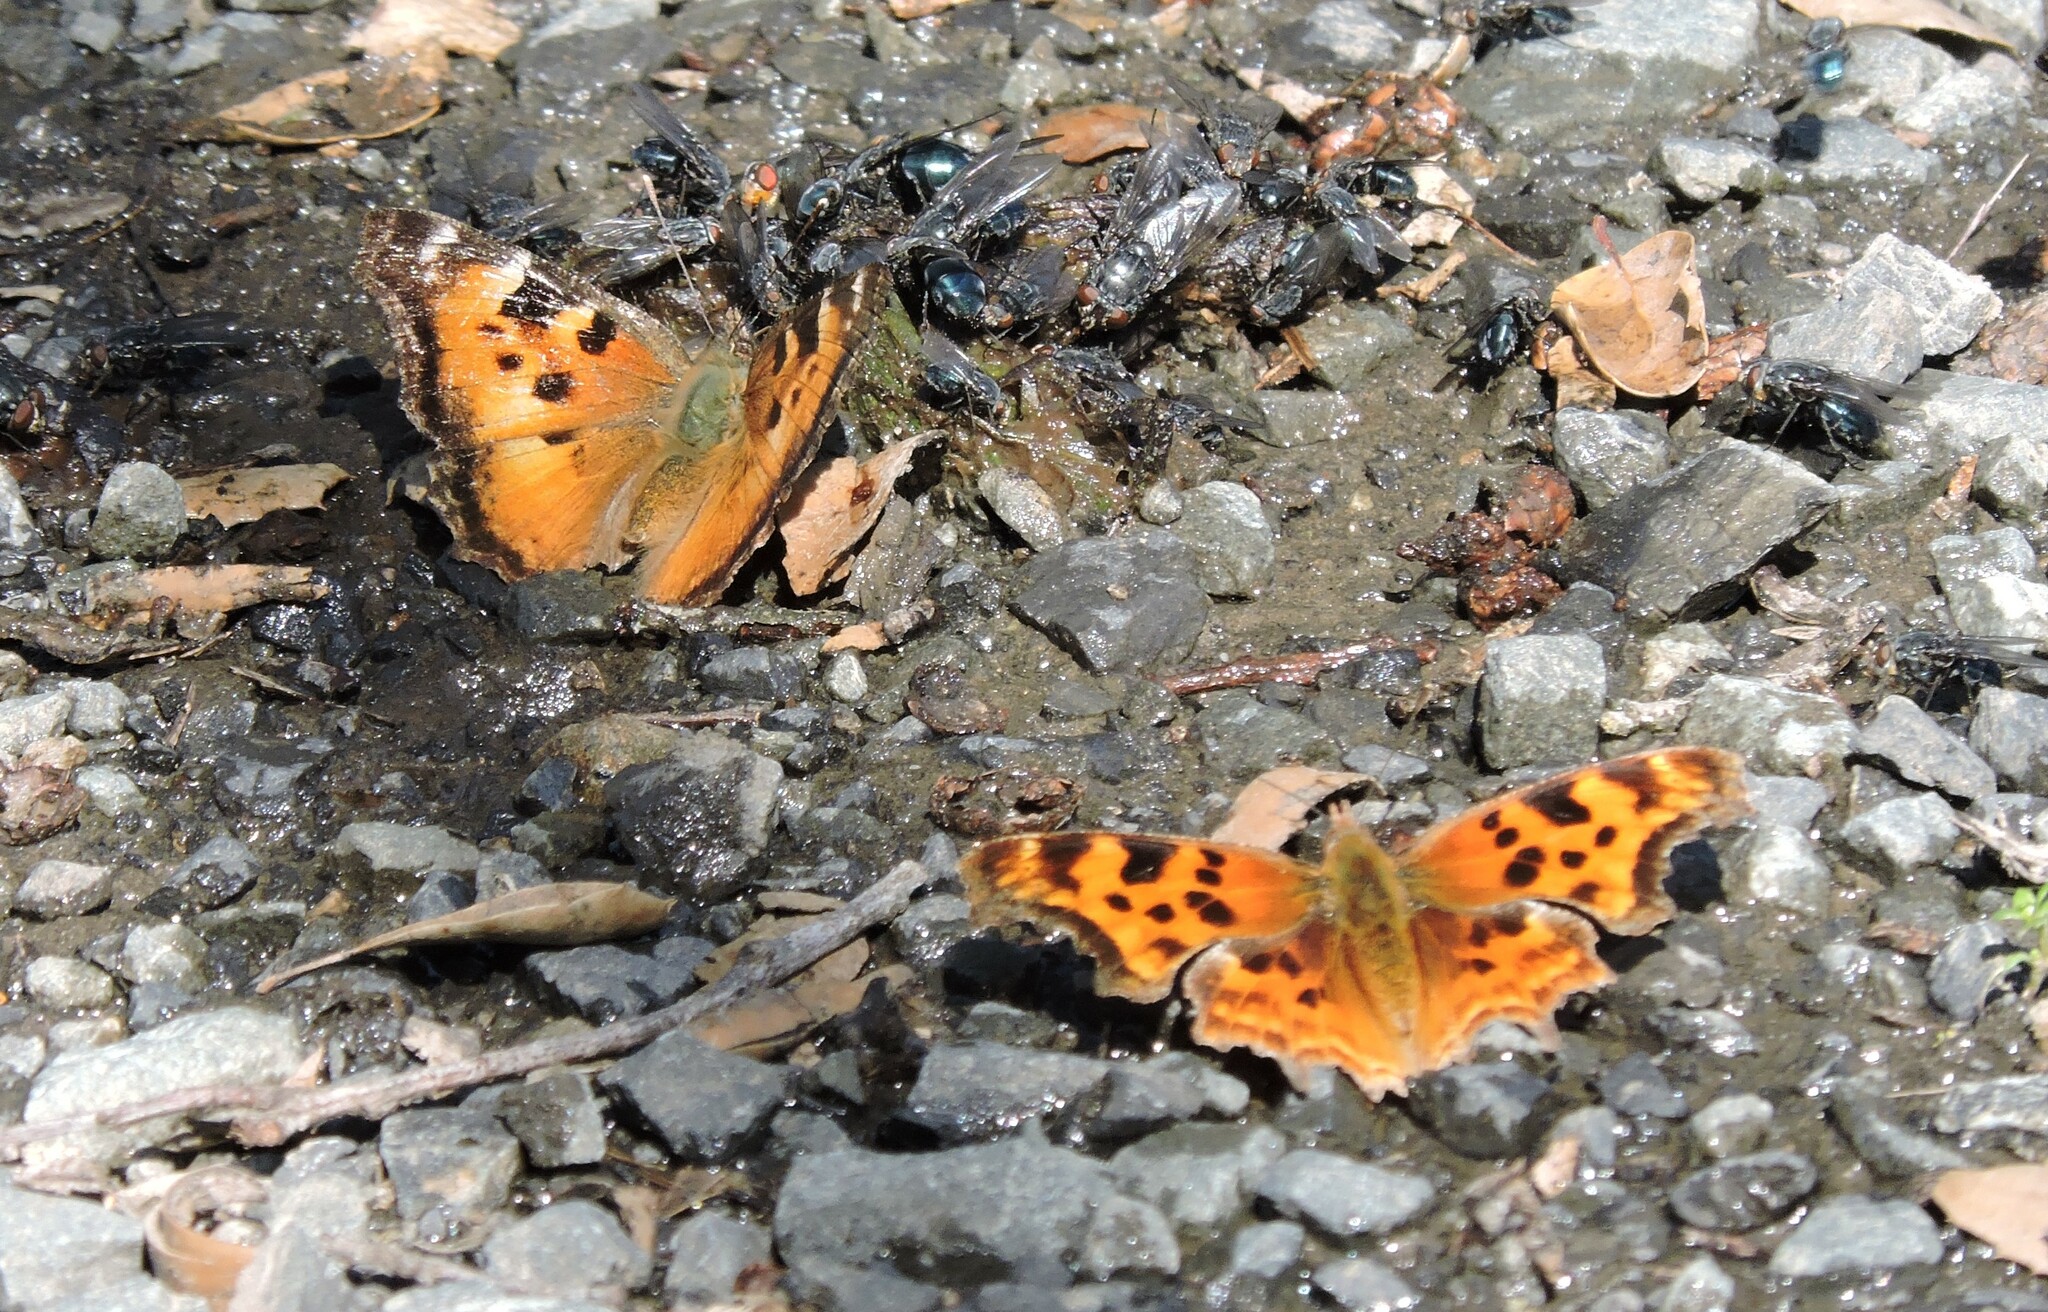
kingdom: Animalia
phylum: Arthropoda
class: Insecta
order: Lepidoptera
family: Nymphalidae
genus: Polygonia
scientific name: Polygonia satyrus
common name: Satyr angle wing
